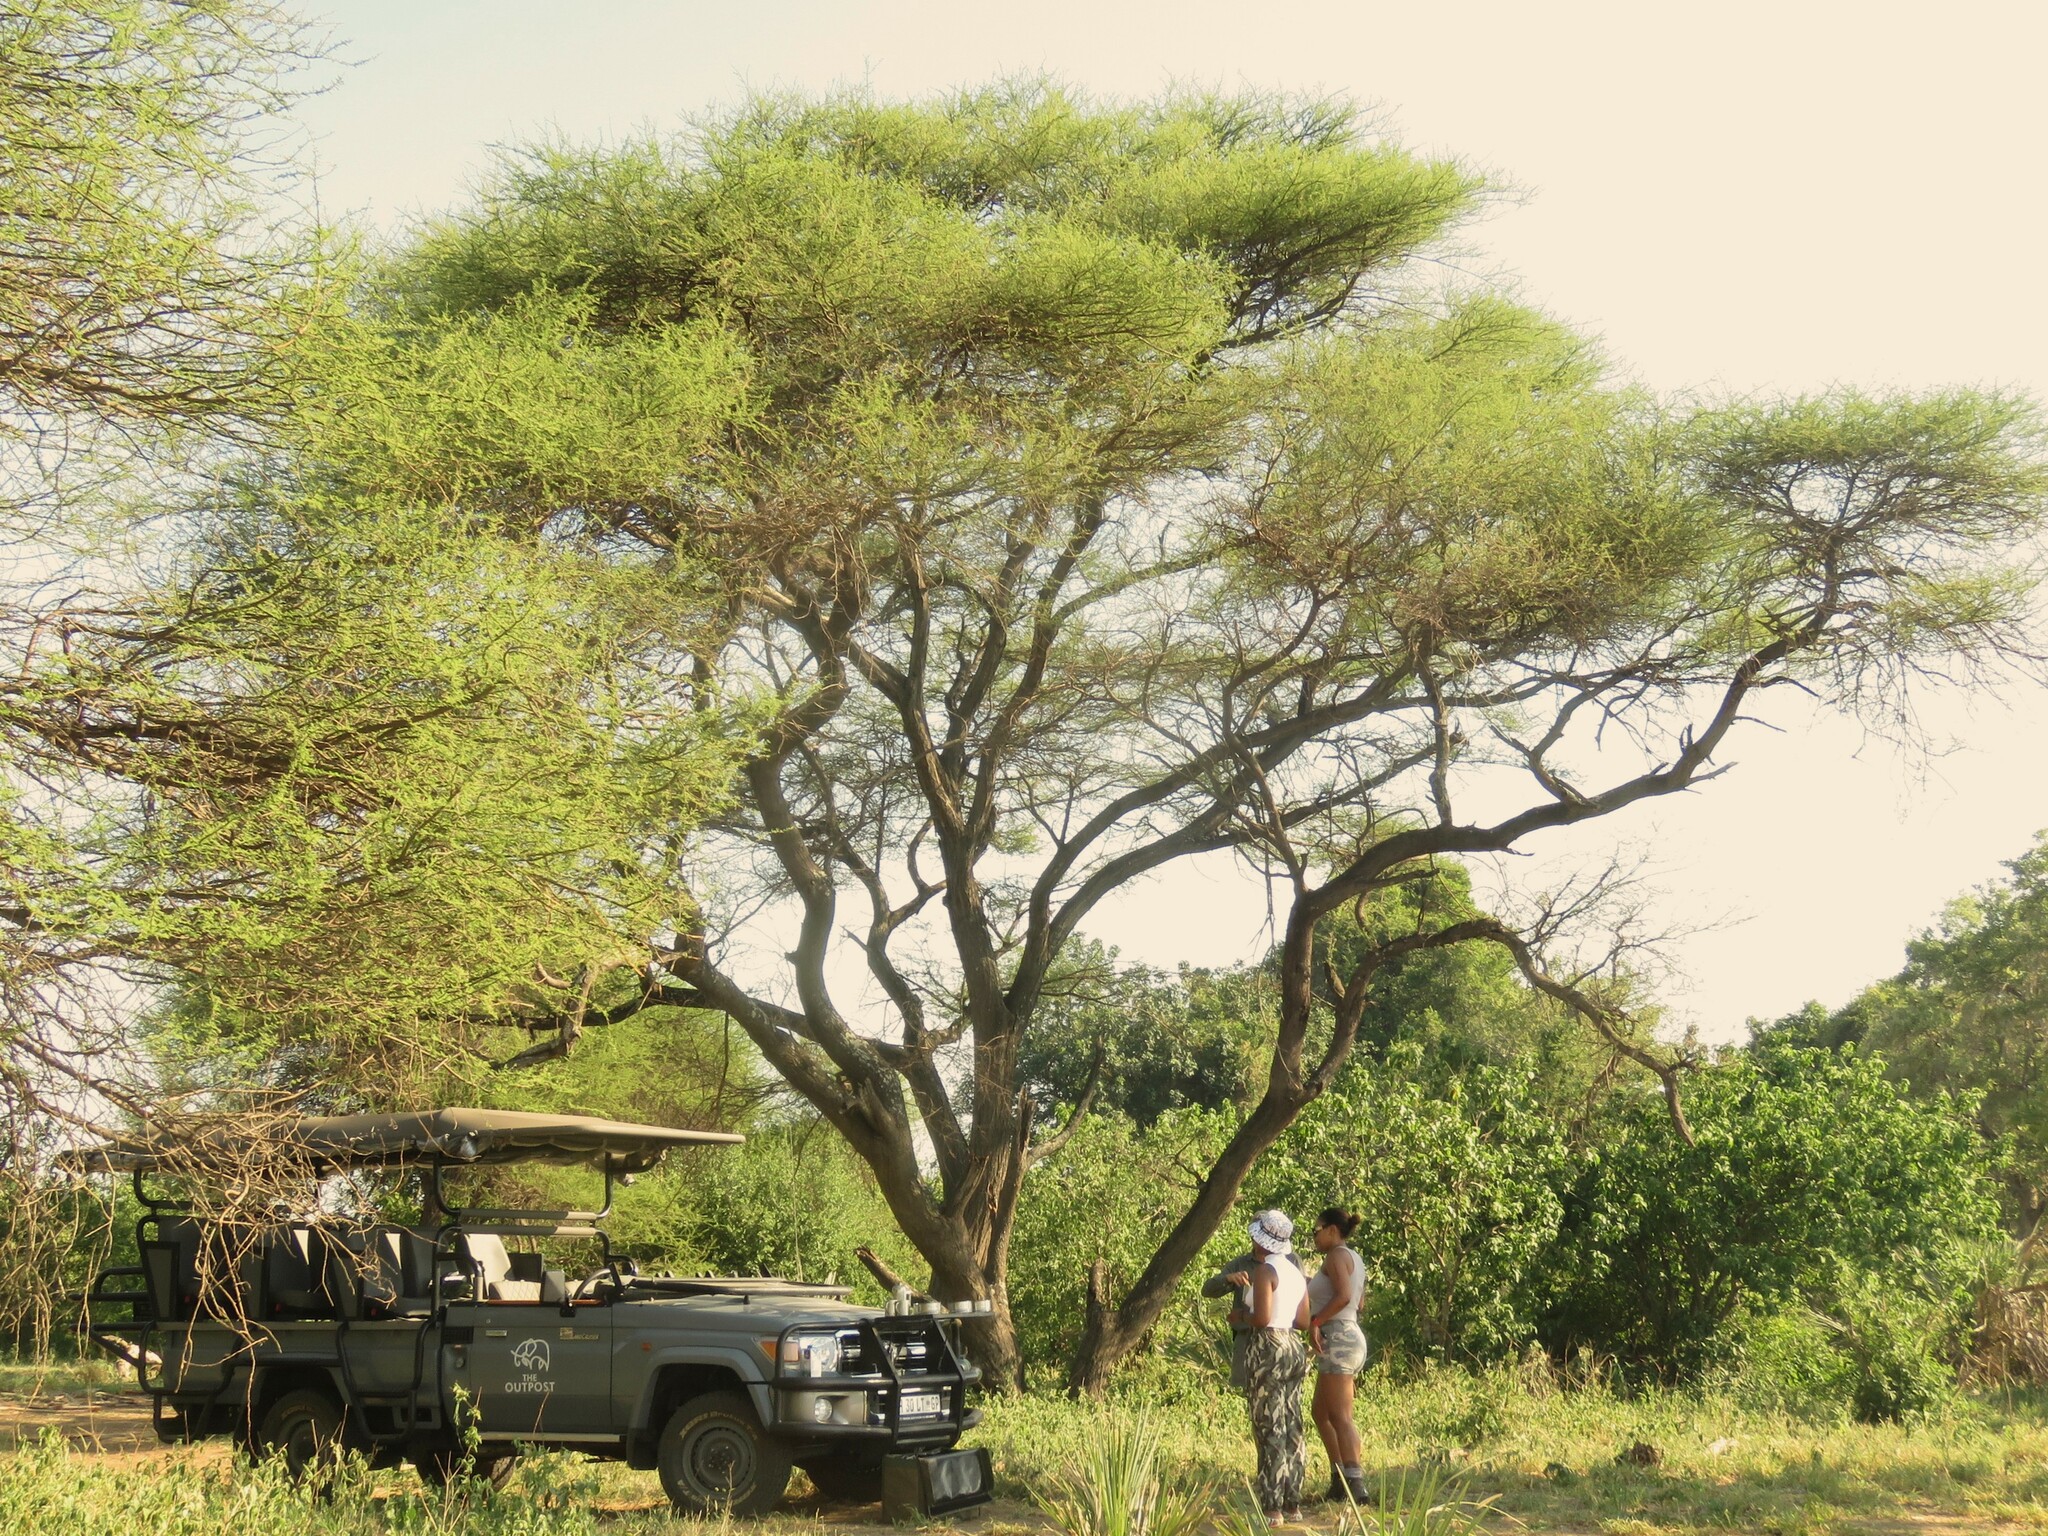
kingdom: Plantae
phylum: Tracheophyta
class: Magnoliopsida
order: Fabales
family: Fabaceae
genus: Vachellia
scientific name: Vachellia tortilis
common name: Umbrella thorn acacia
